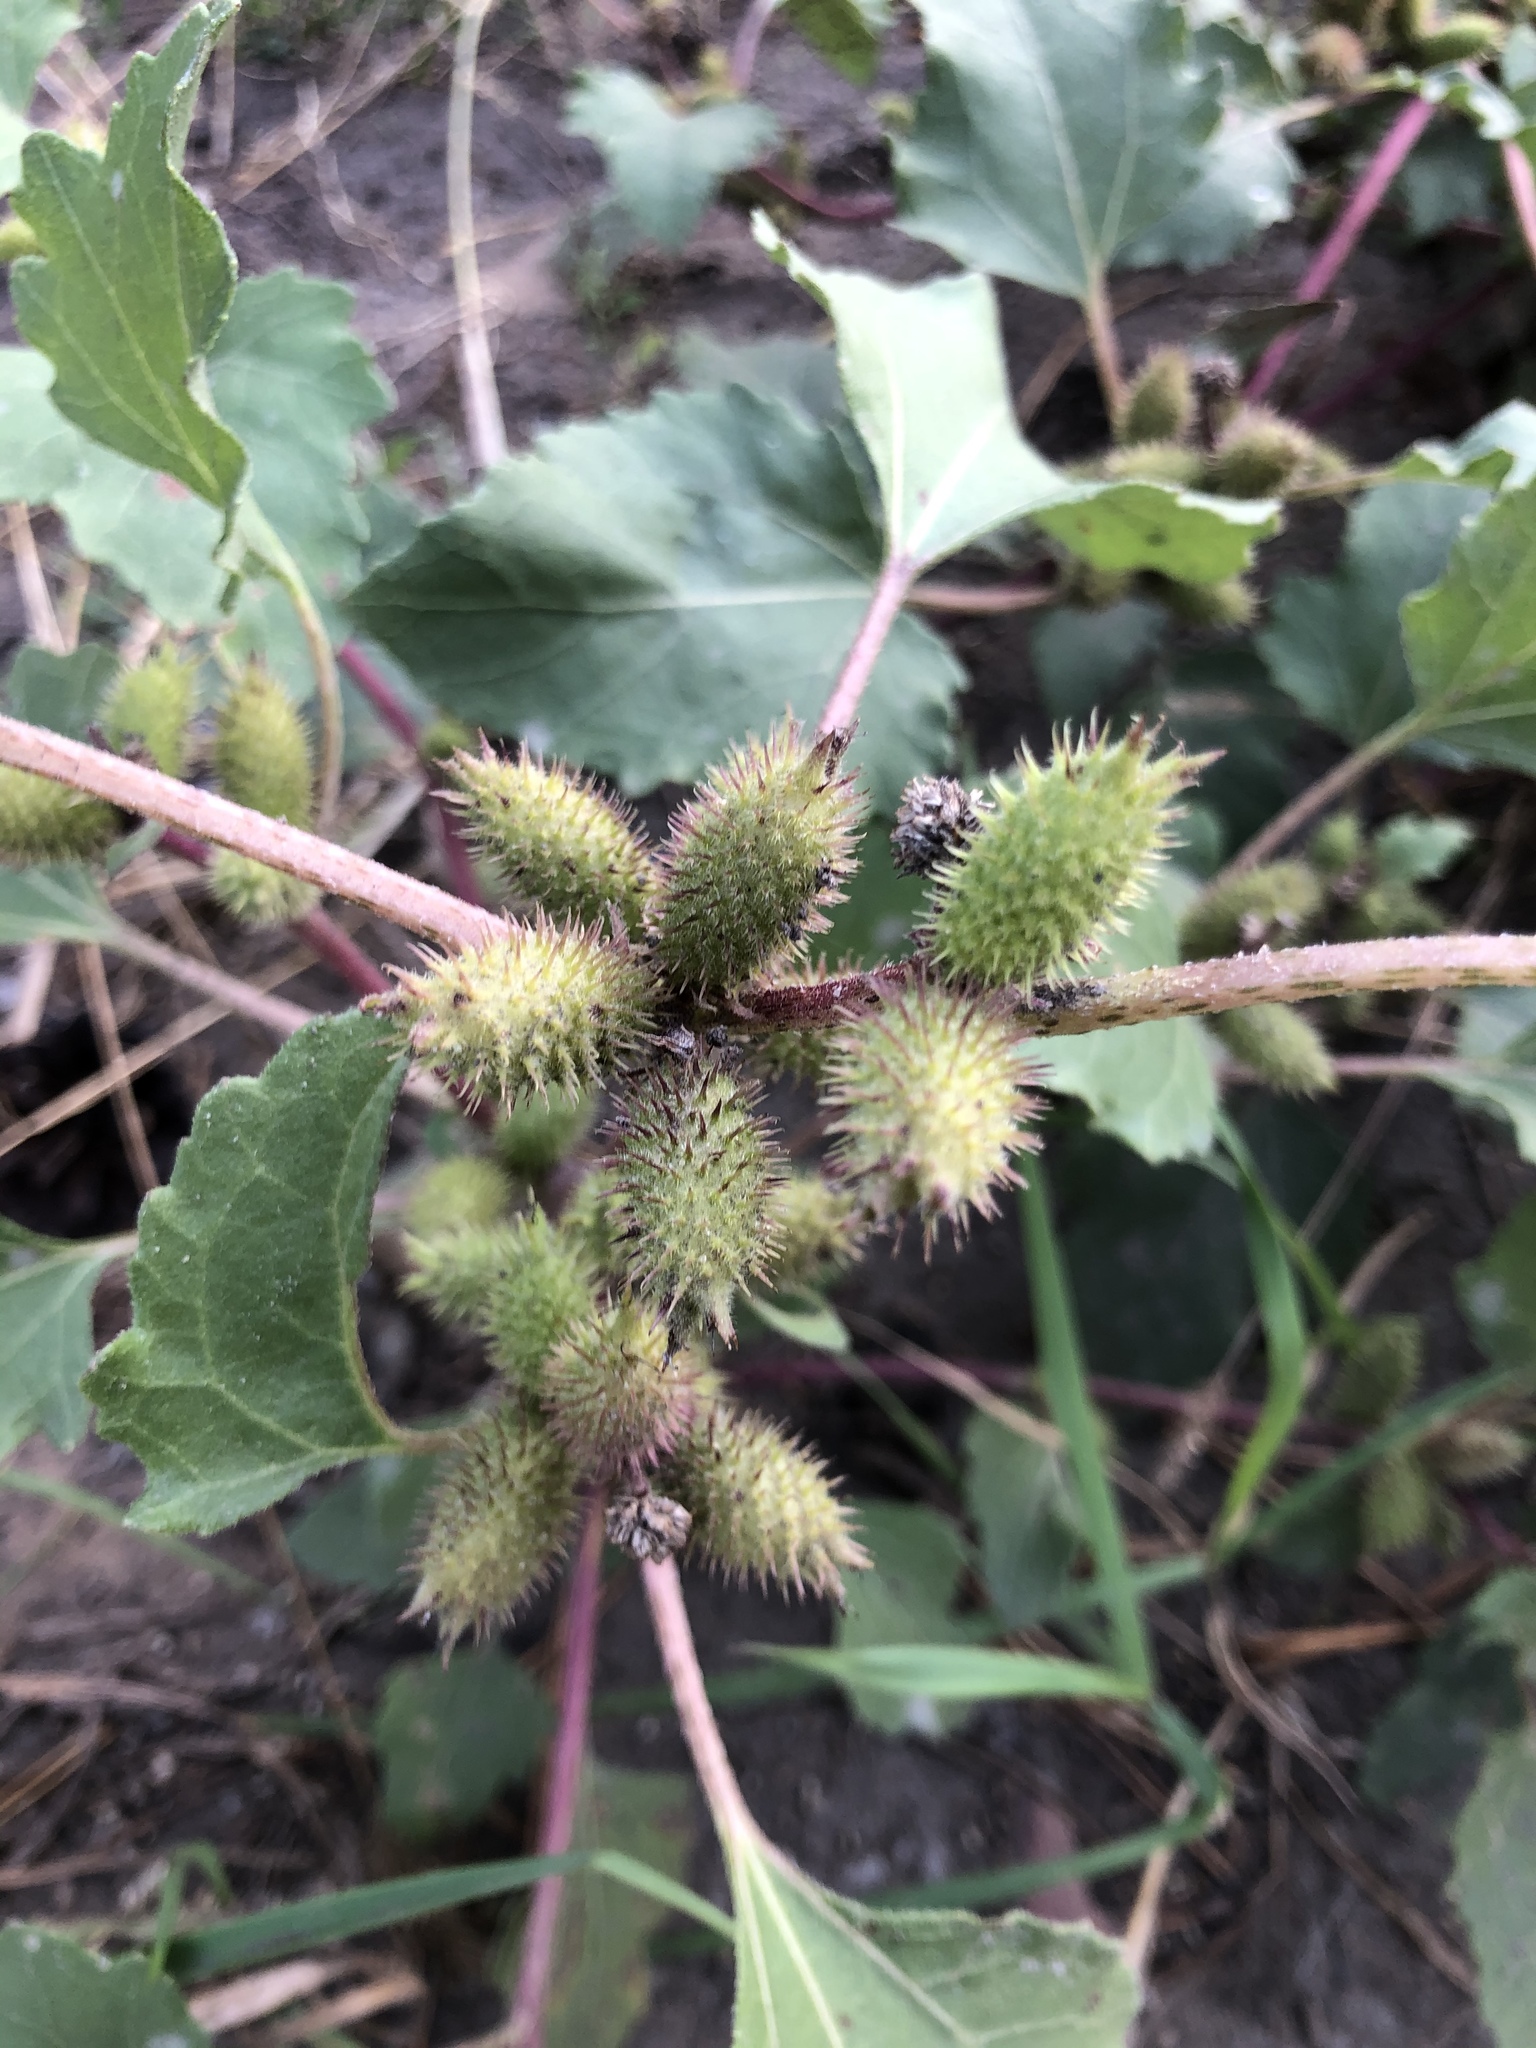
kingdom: Plantae
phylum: Tracheophyta
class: Magnoliopsida
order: Asterales
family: Asteraceae
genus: Xanthium
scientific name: Xanthium orientale
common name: Californian burr
